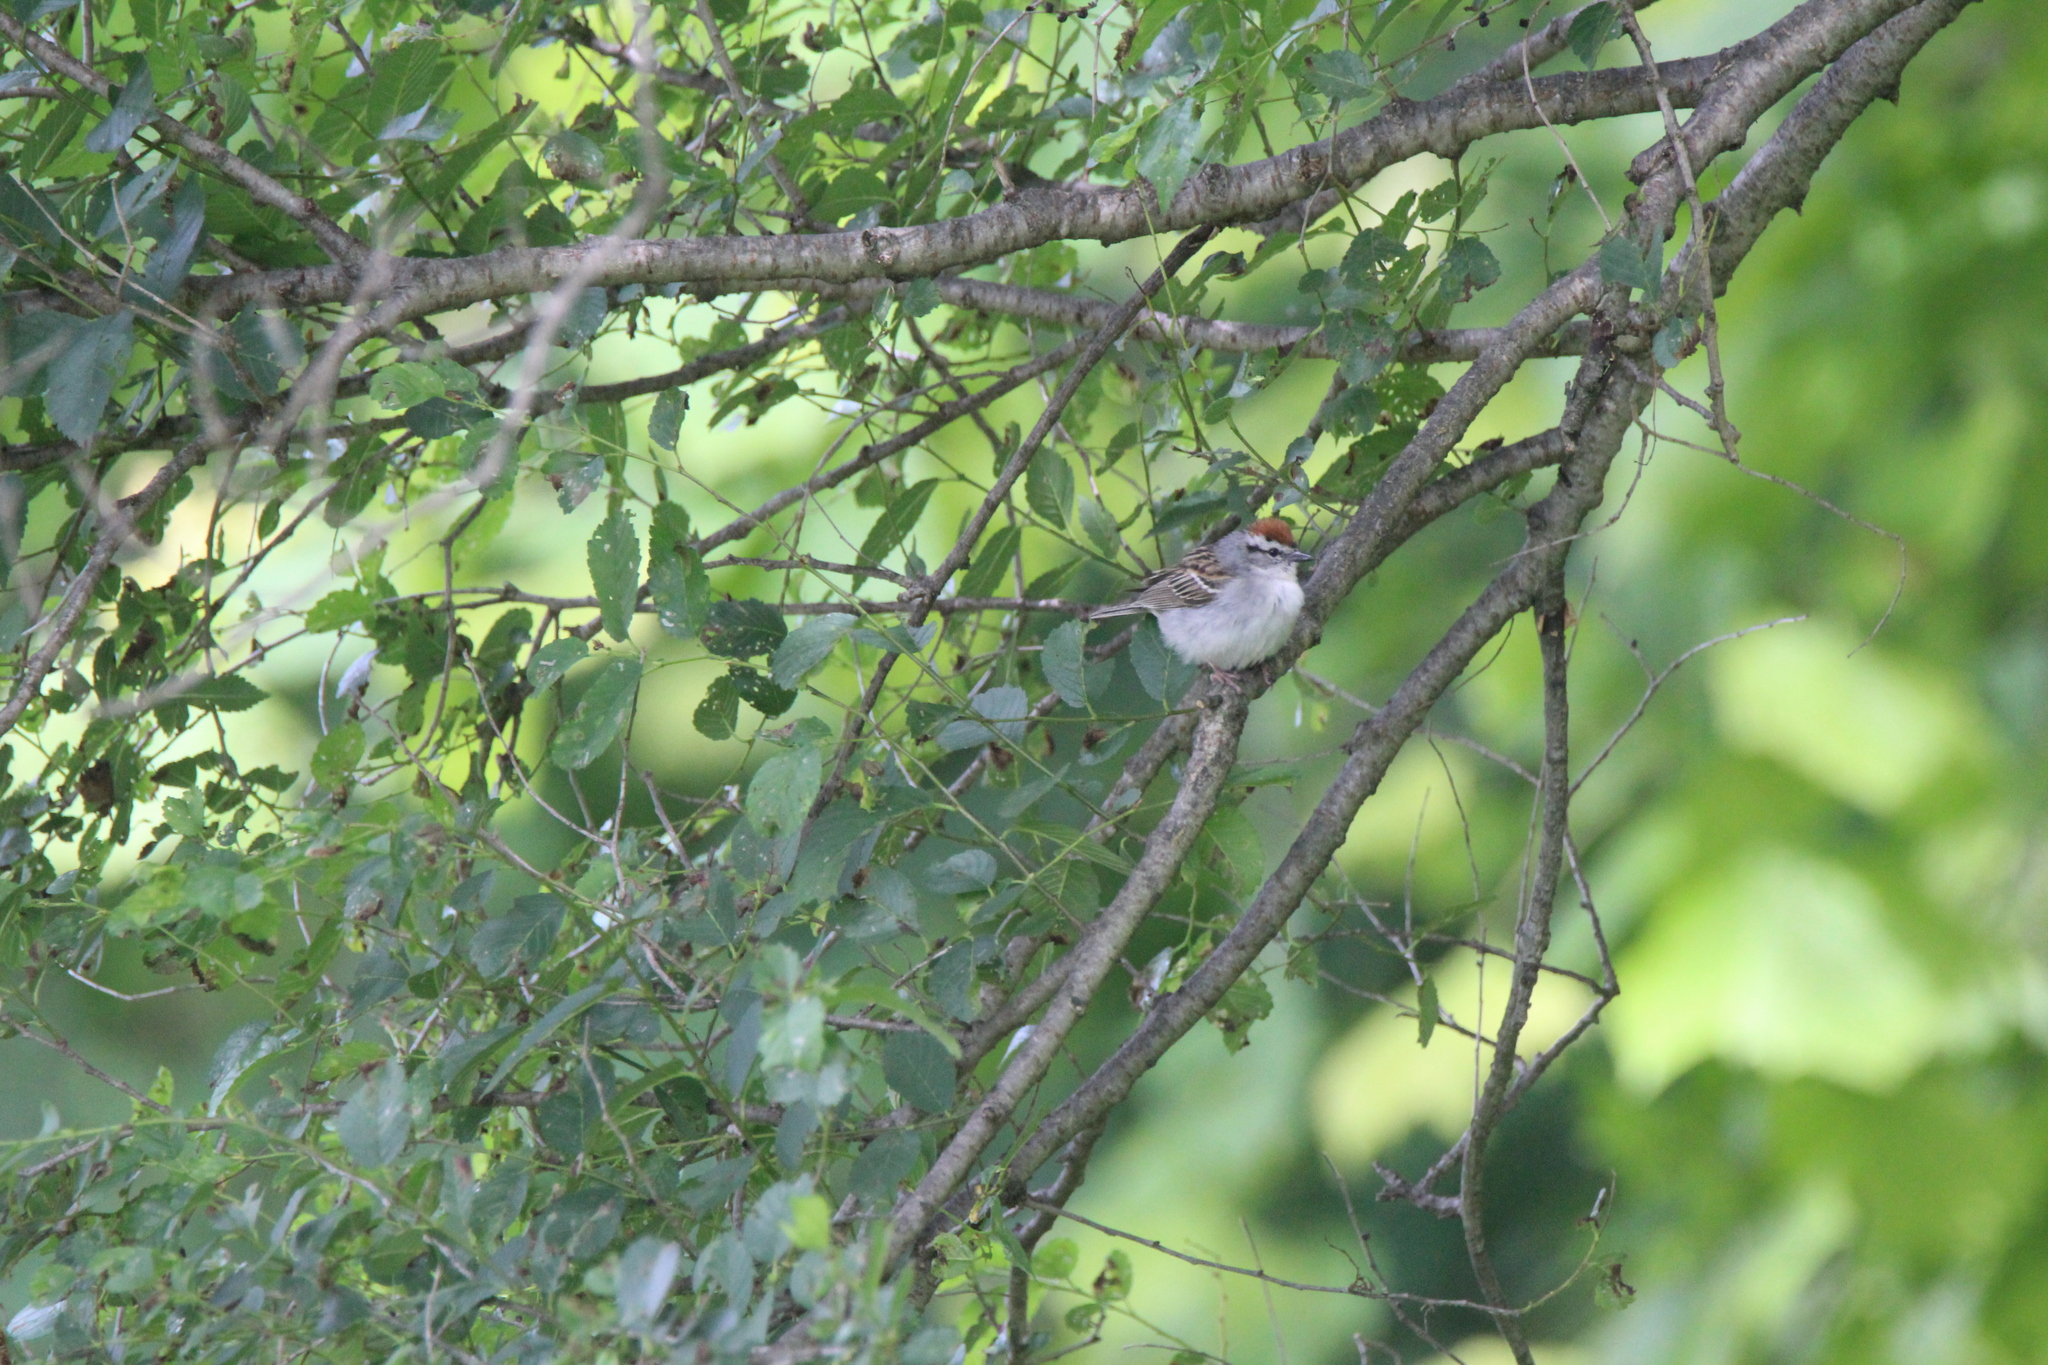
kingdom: Animalia
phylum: Chordata
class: Aves
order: Passeriformes
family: Passerellidae
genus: Spizella
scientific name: Spizella passerina
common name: Chipping sparrow
